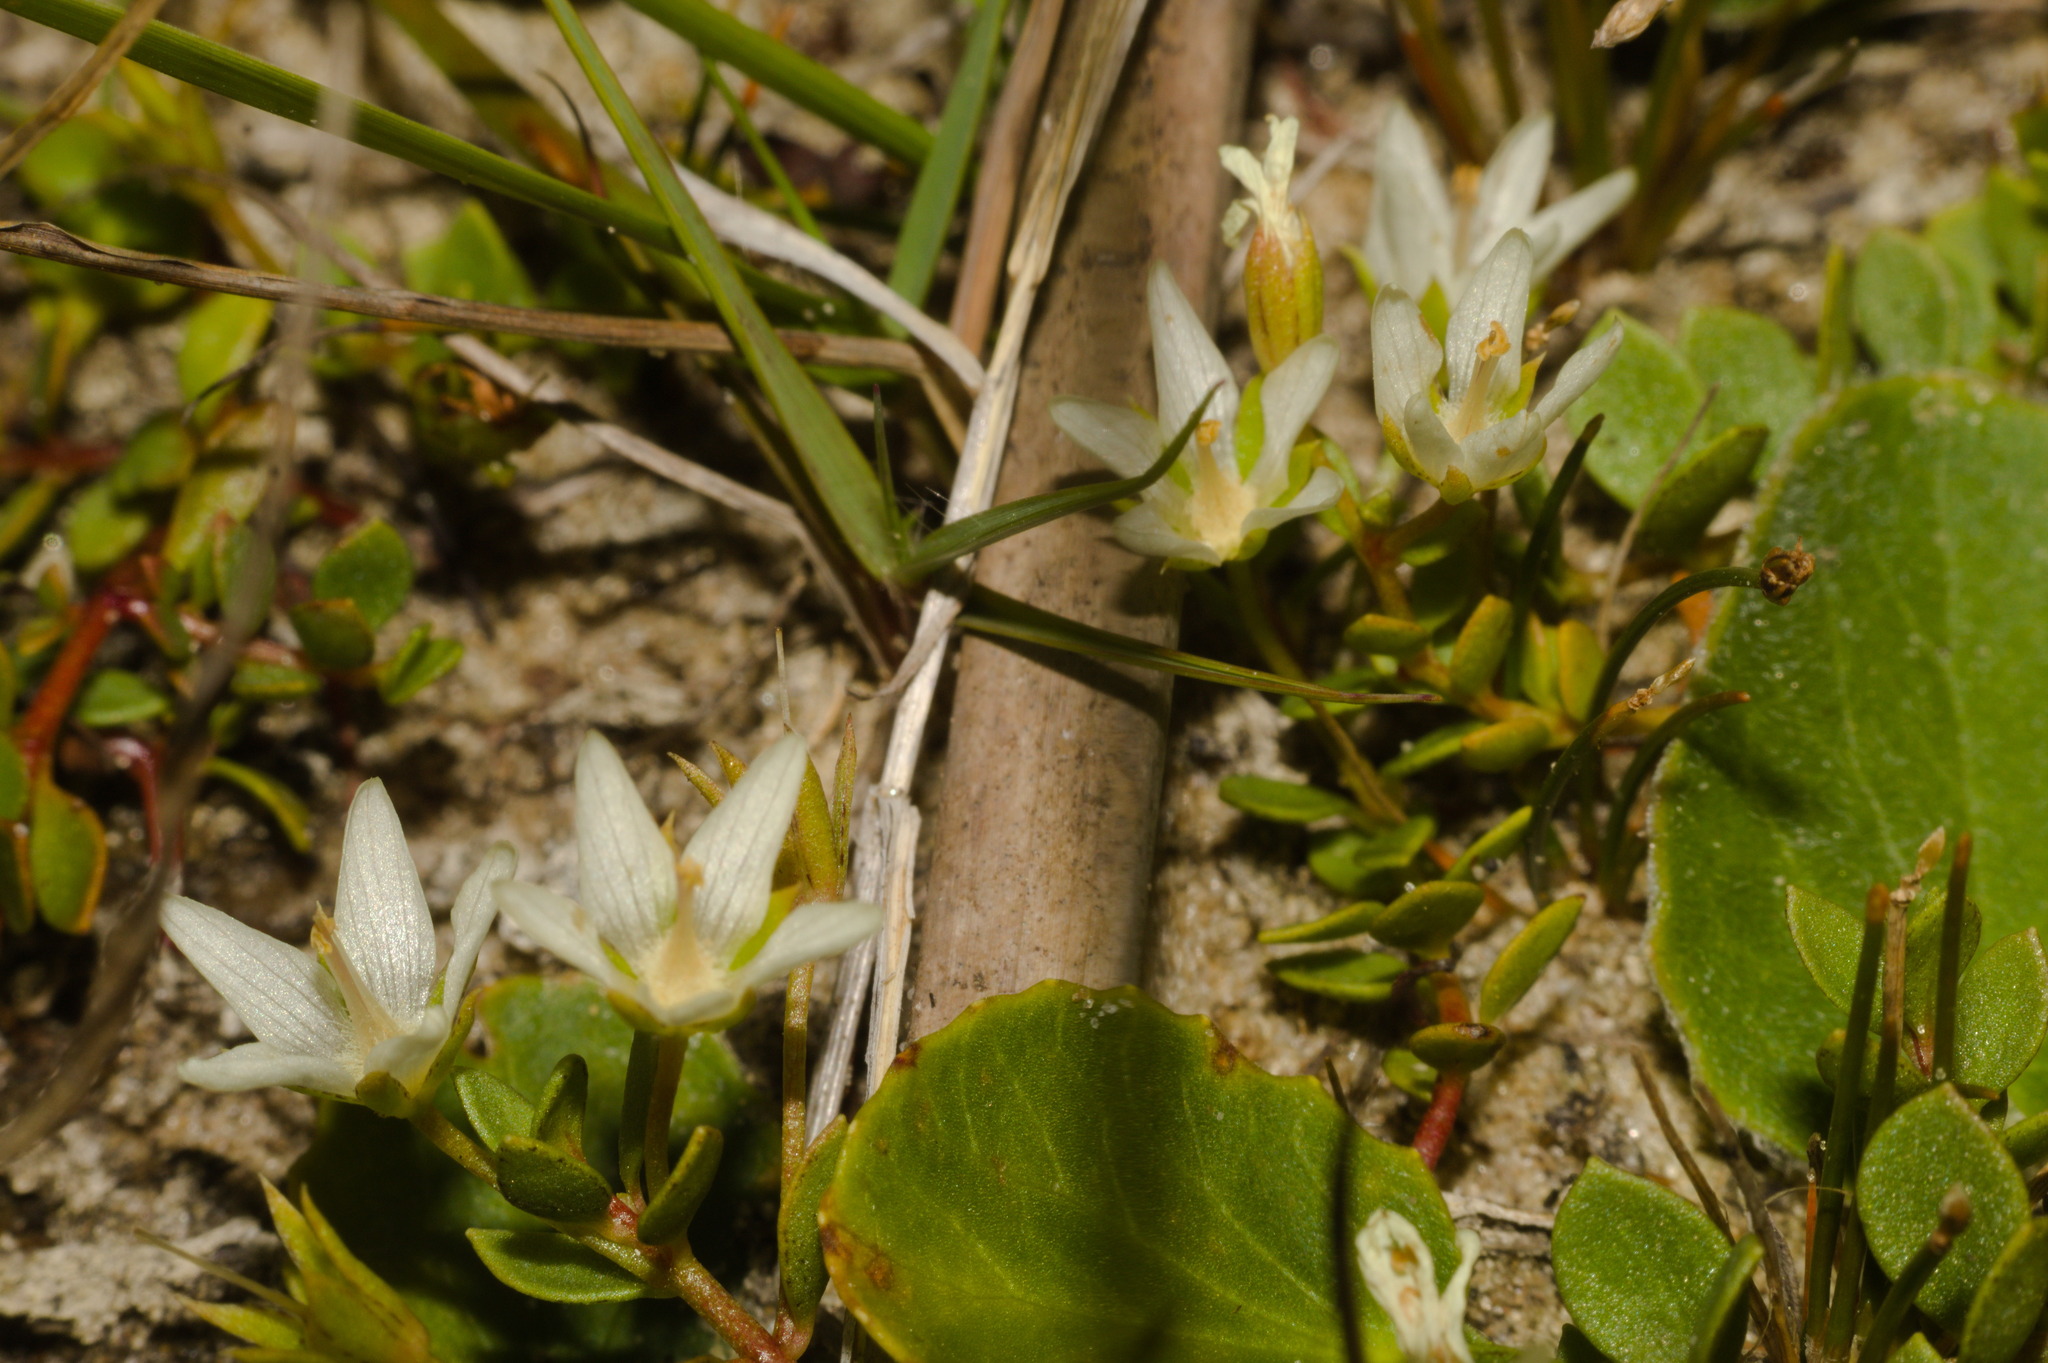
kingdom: Plantae
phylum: Tracheophyta
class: Magnoliopsida
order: Ericales
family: Primulaceae
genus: Lysimachia
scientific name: Lysimachia filiformis
